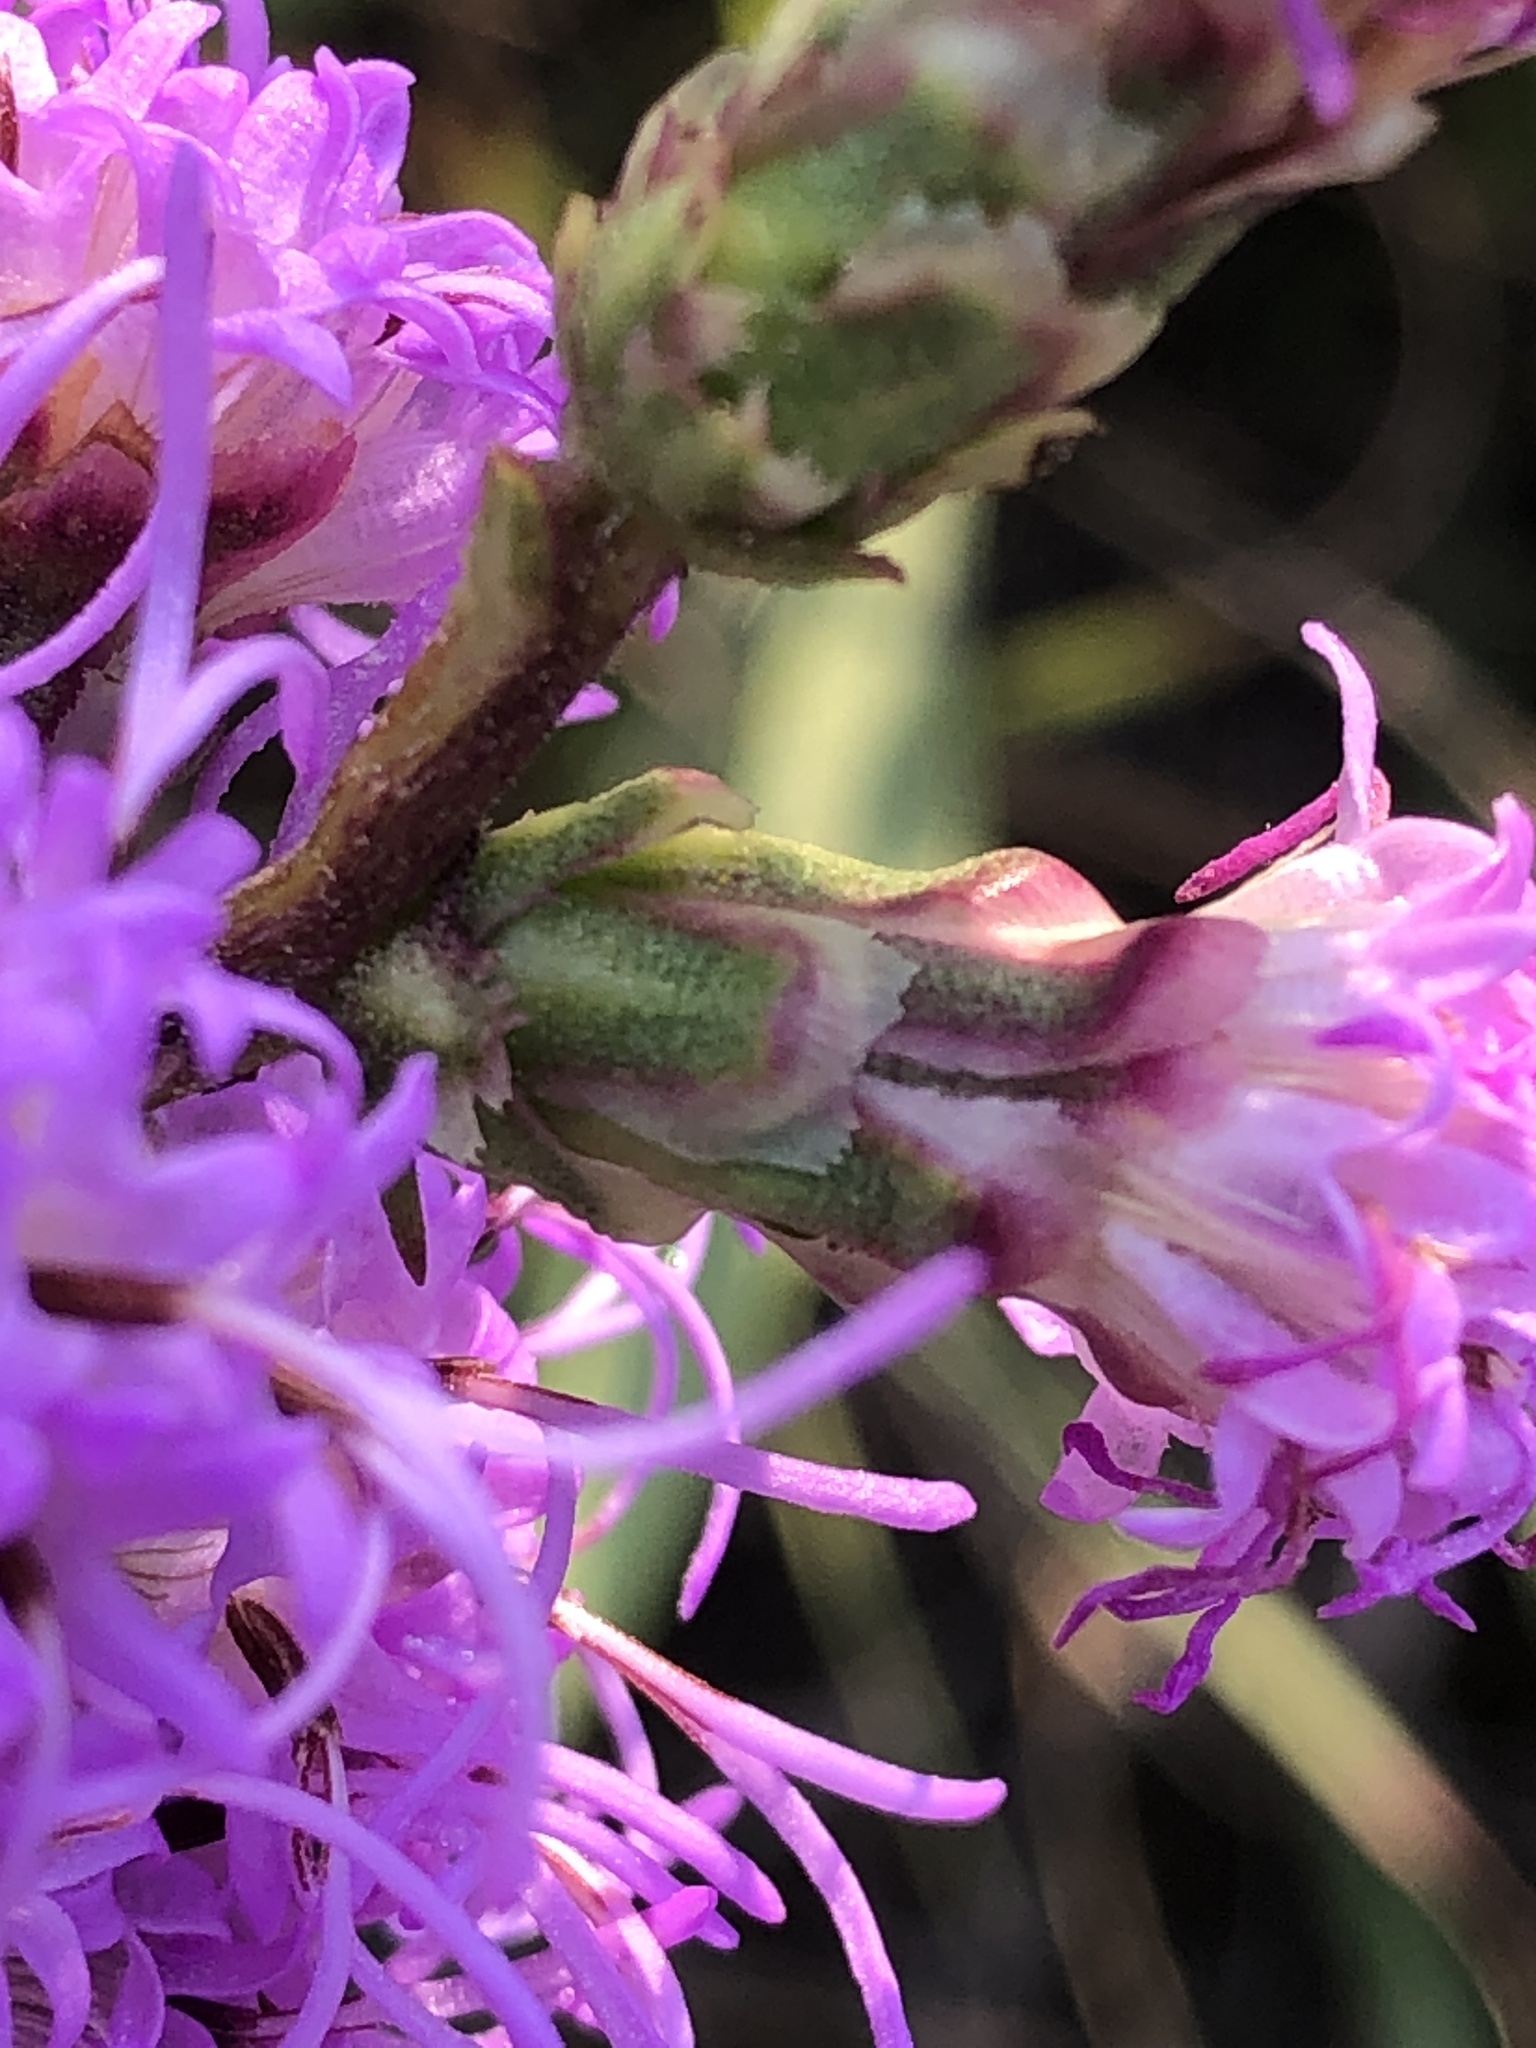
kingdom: Plantae
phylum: Tracheophyta
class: Magnoliopsida
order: Asterales
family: Asteraceae
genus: Liatris
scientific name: Liatris punctata
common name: Dotted gayfeather
